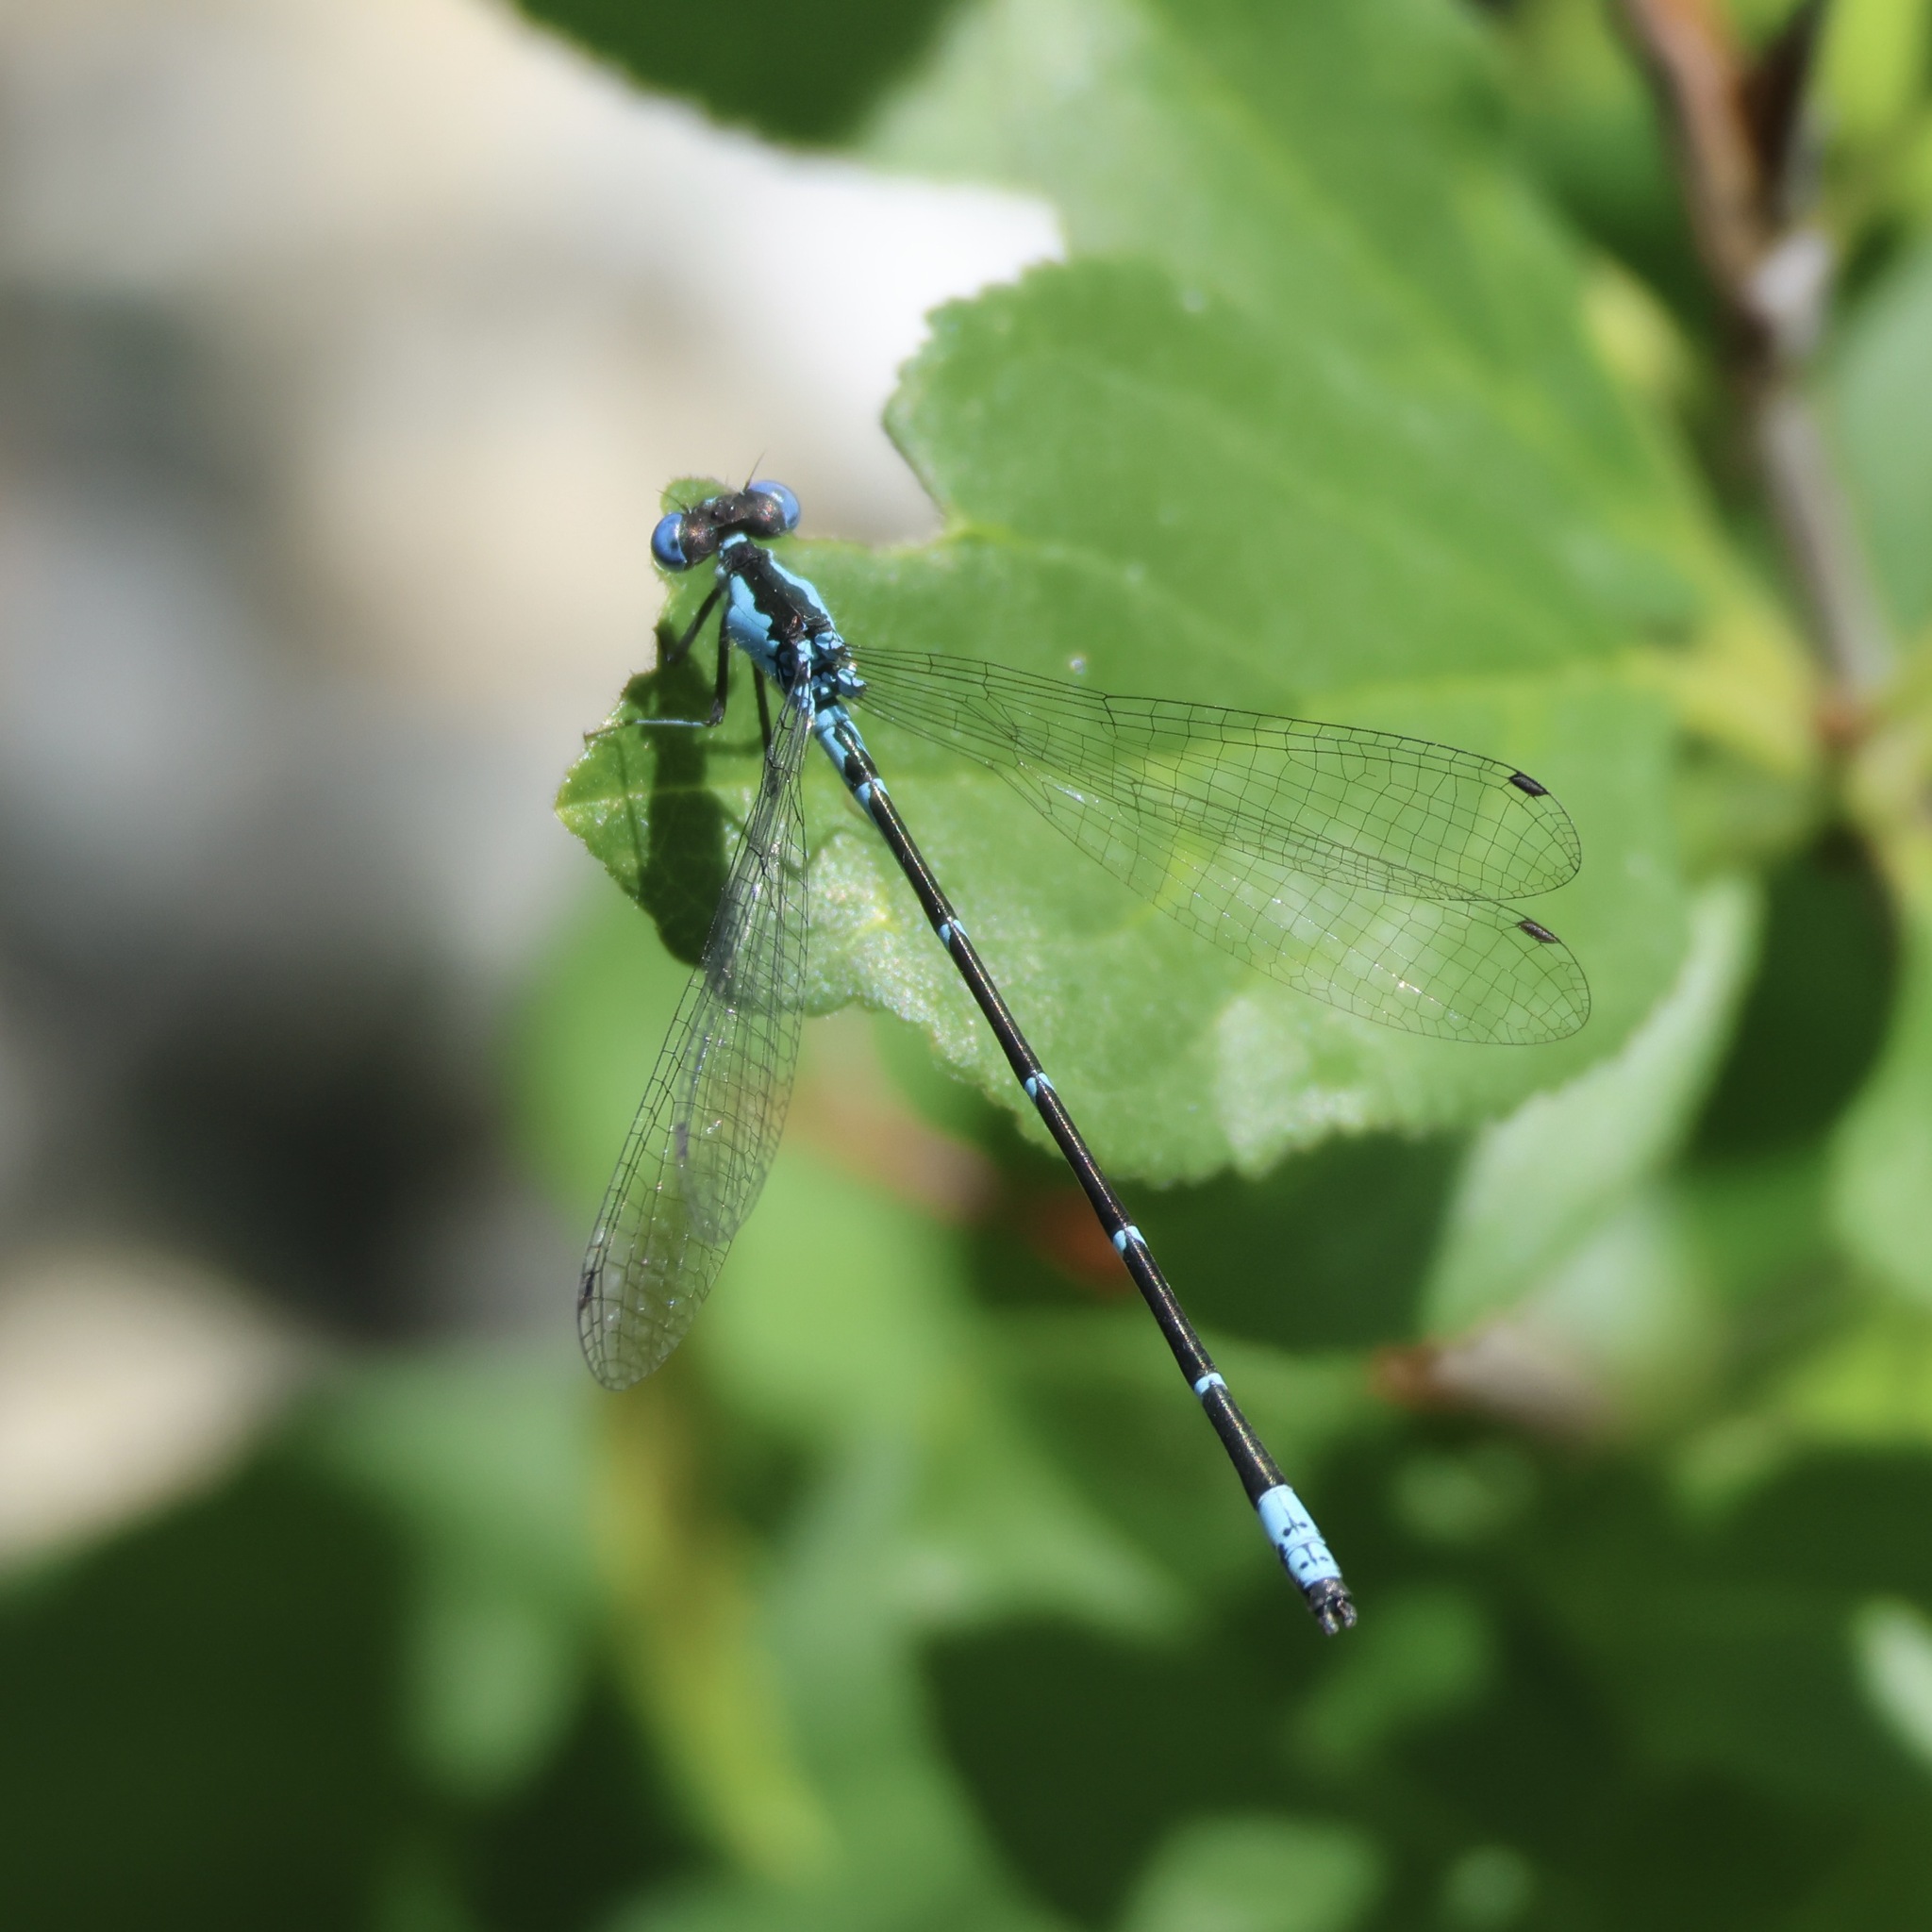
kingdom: Animalia
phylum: Arthropoda
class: Insecta
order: Odonata
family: Coenagrionidae
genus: Chromagrion
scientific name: Chromagrion conditum
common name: Aurora damsel
